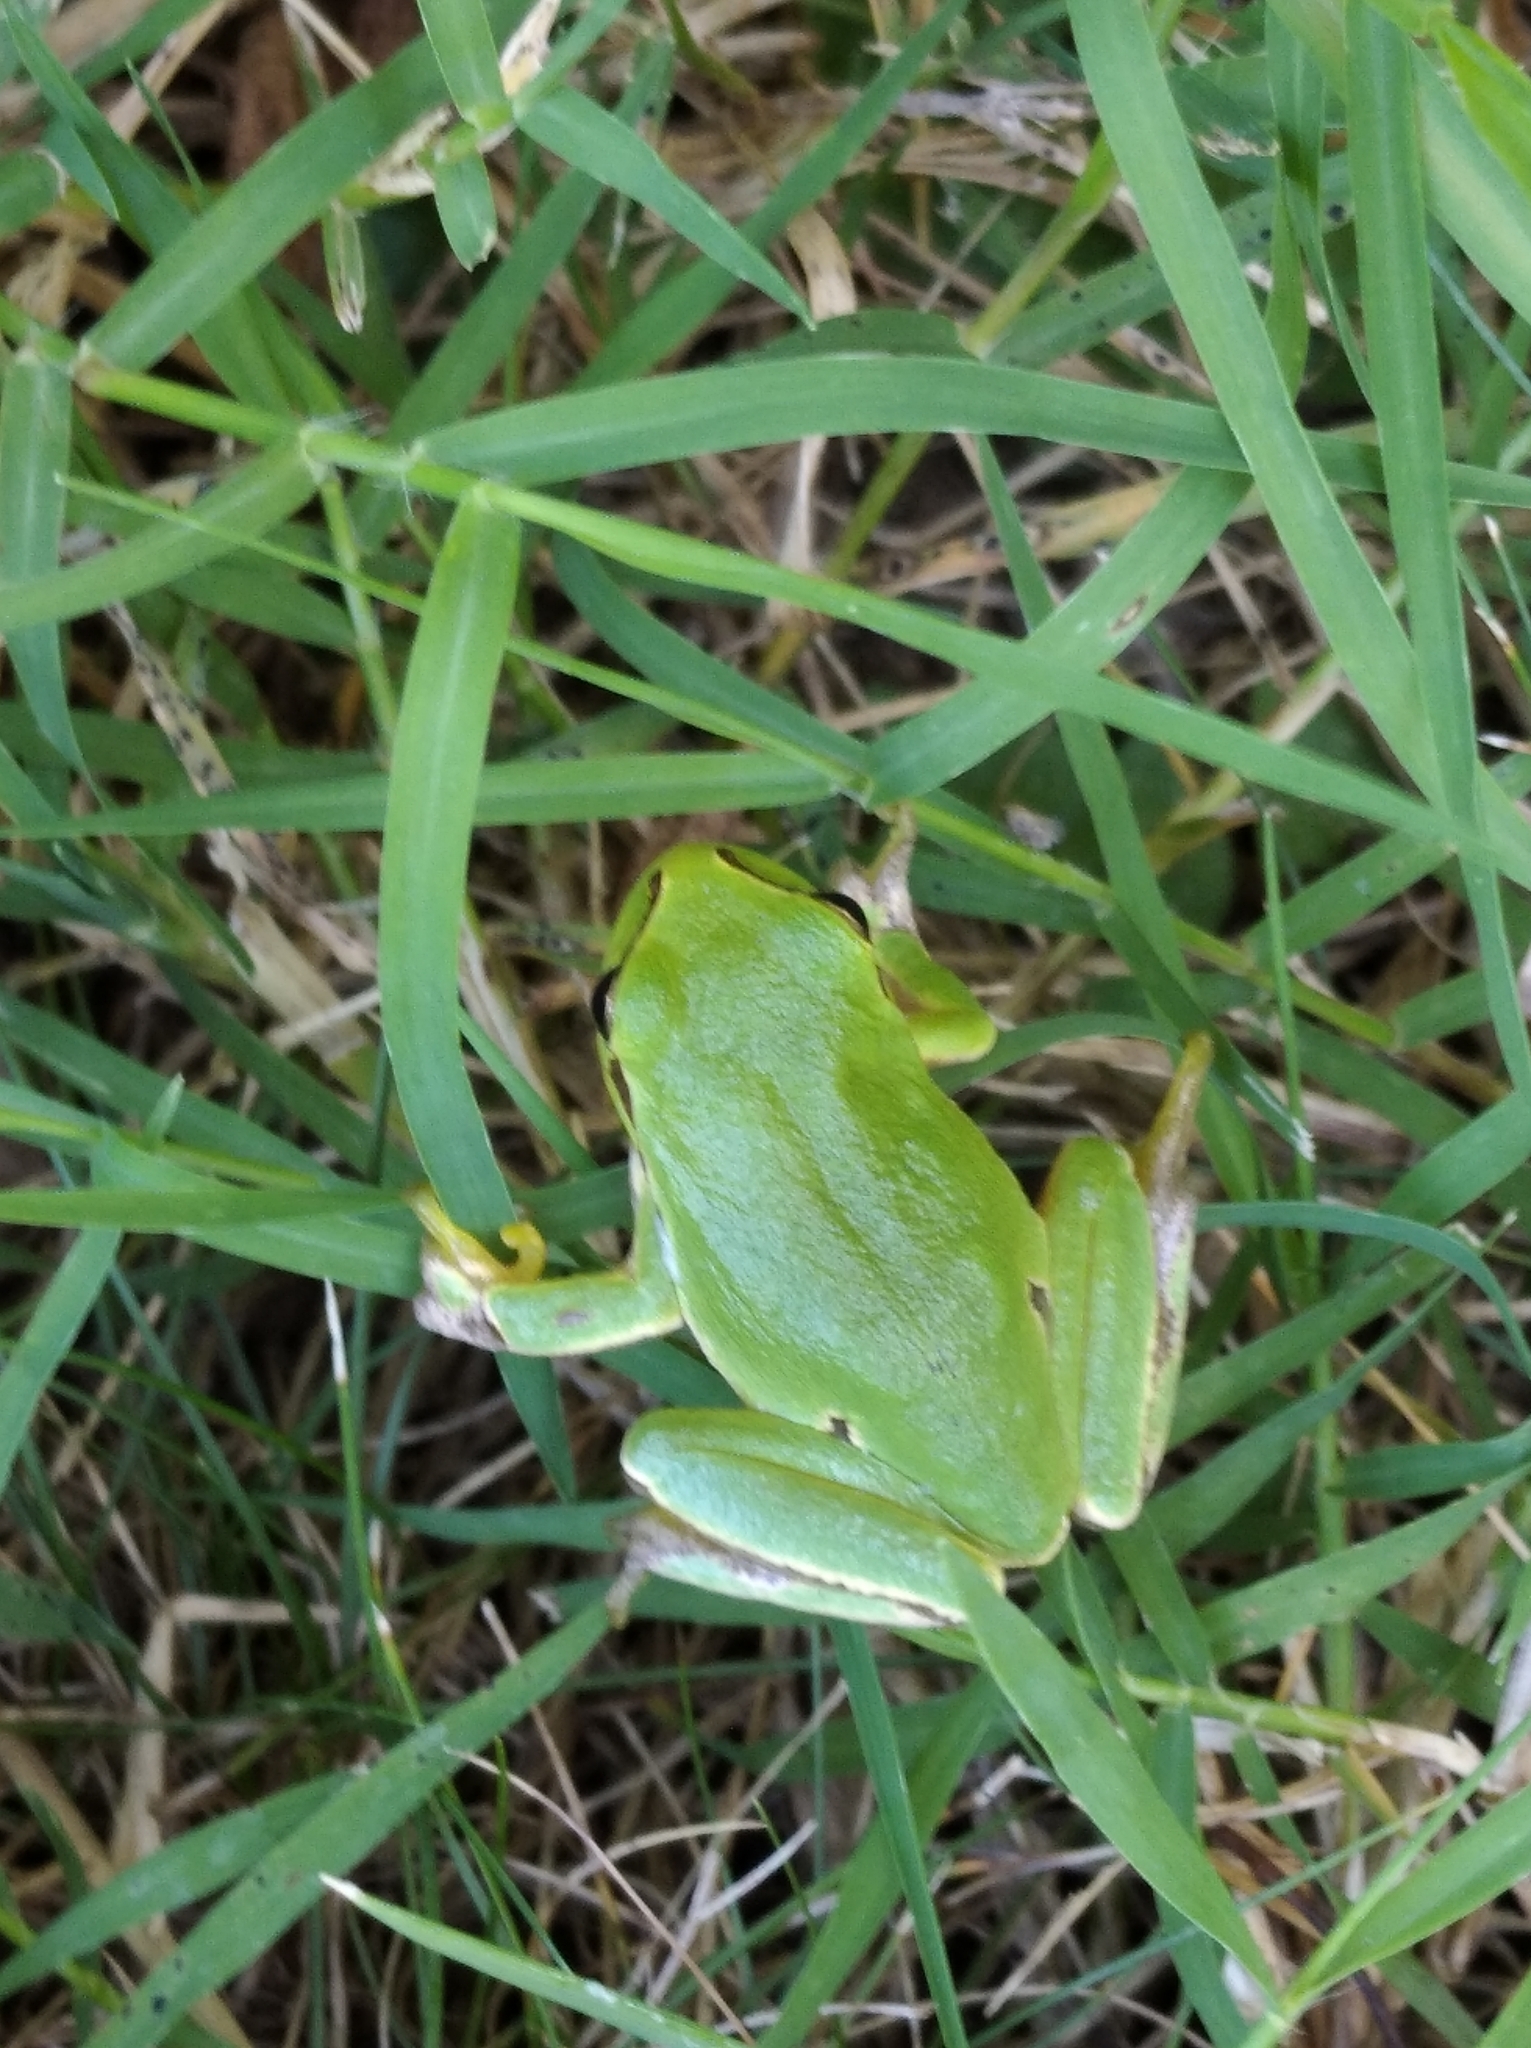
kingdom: Animalia
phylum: Chordata
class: Amphibia
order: Anura
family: Hylidae
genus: Hyla
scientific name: Hyla orientalis
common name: Caucasian treefrog
